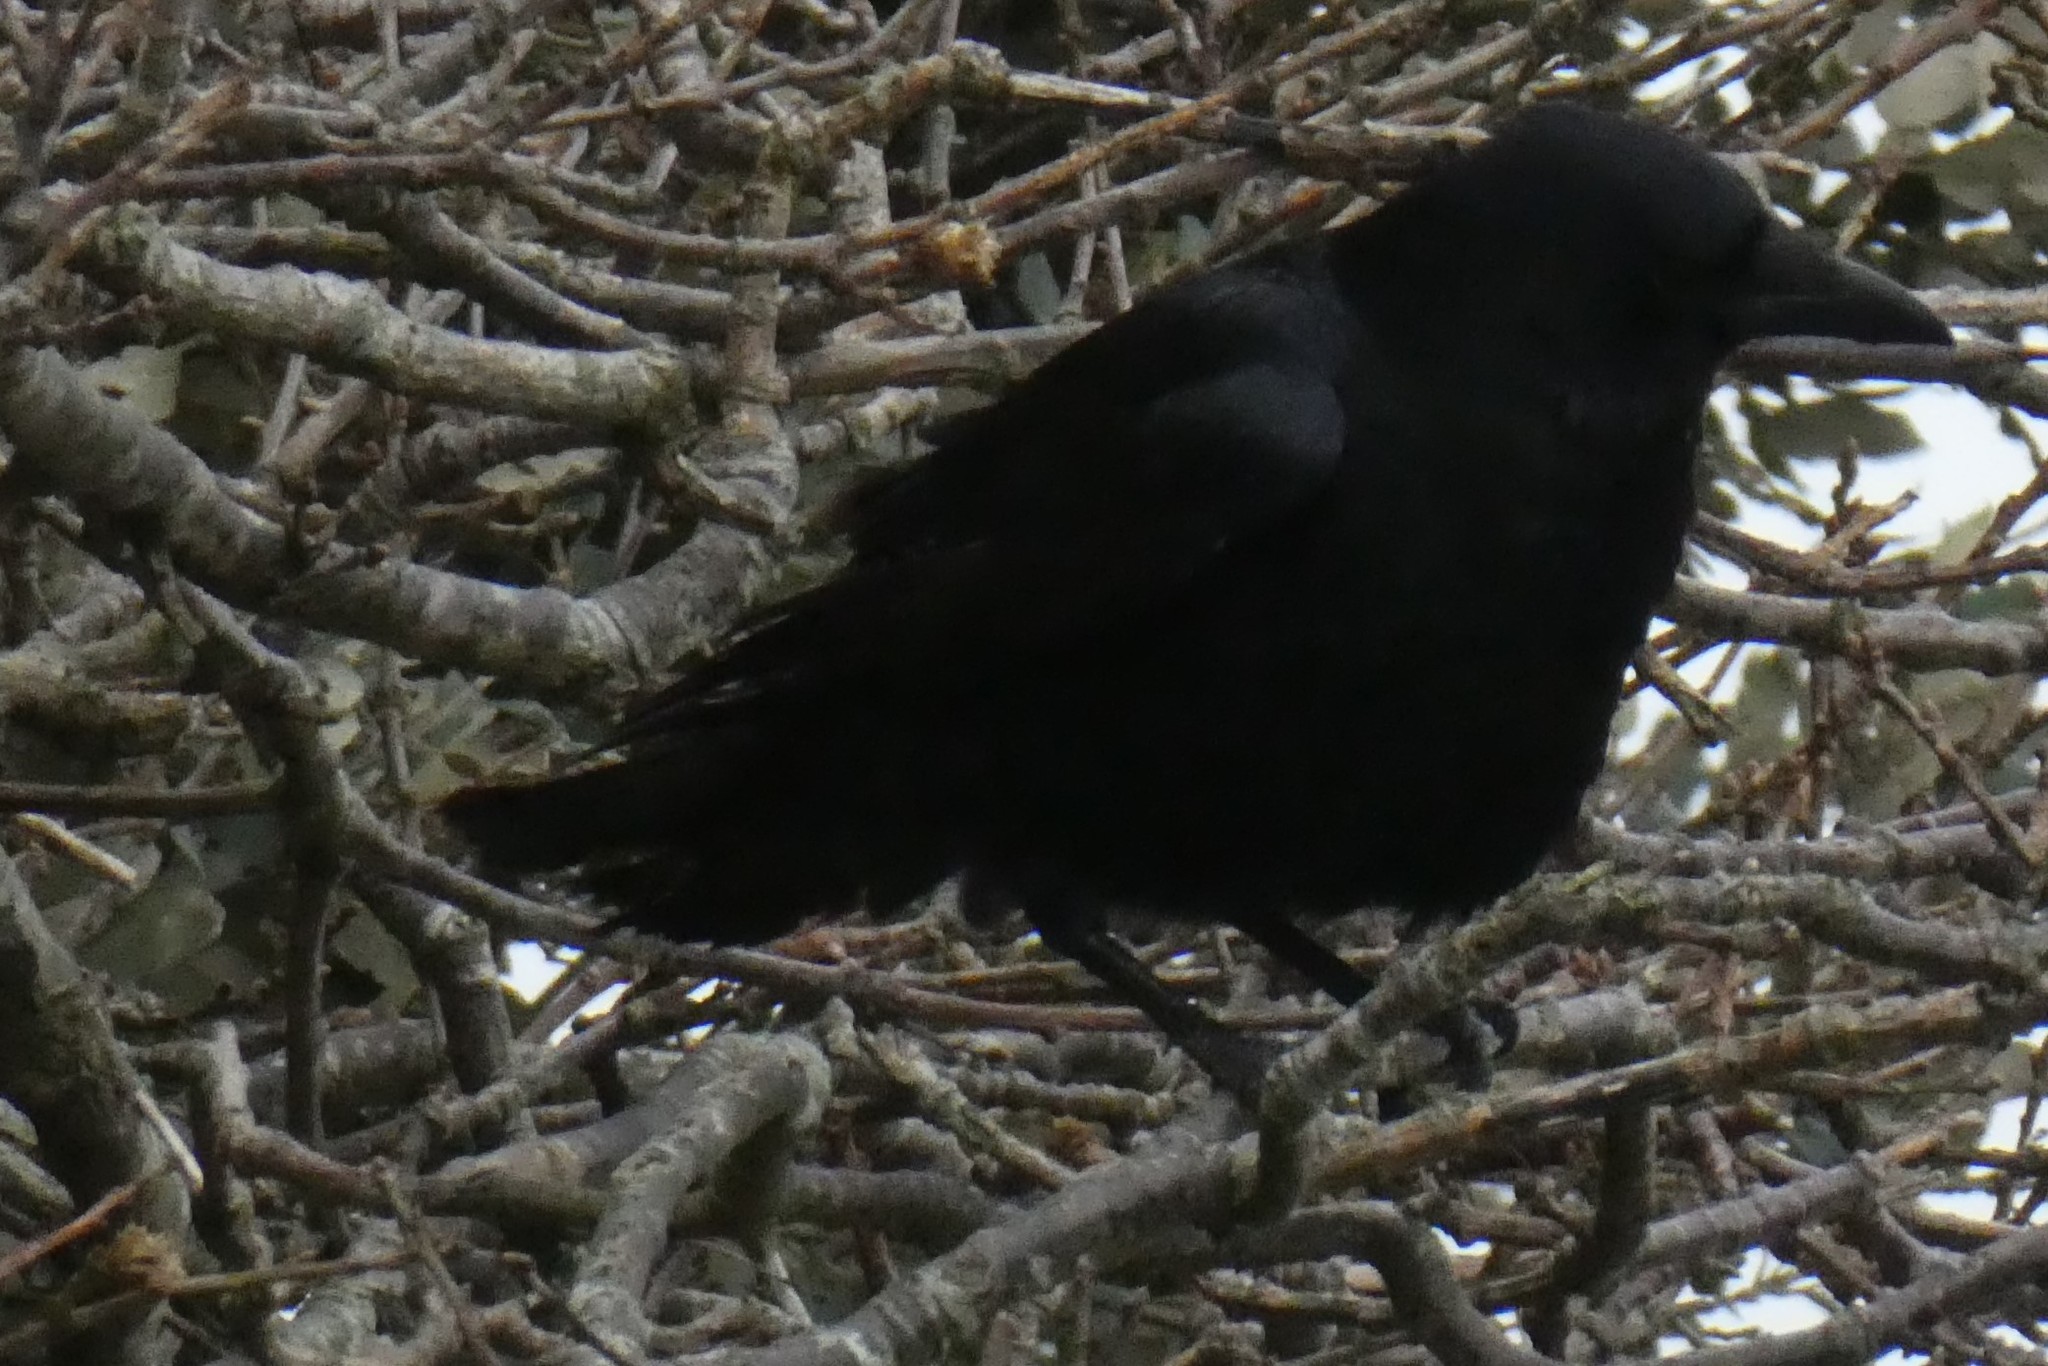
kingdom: Animalia
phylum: Chordata
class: Aves
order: Passeriformes
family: Corvidae
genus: Corvus
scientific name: Corvus corone
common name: Carrion crow
